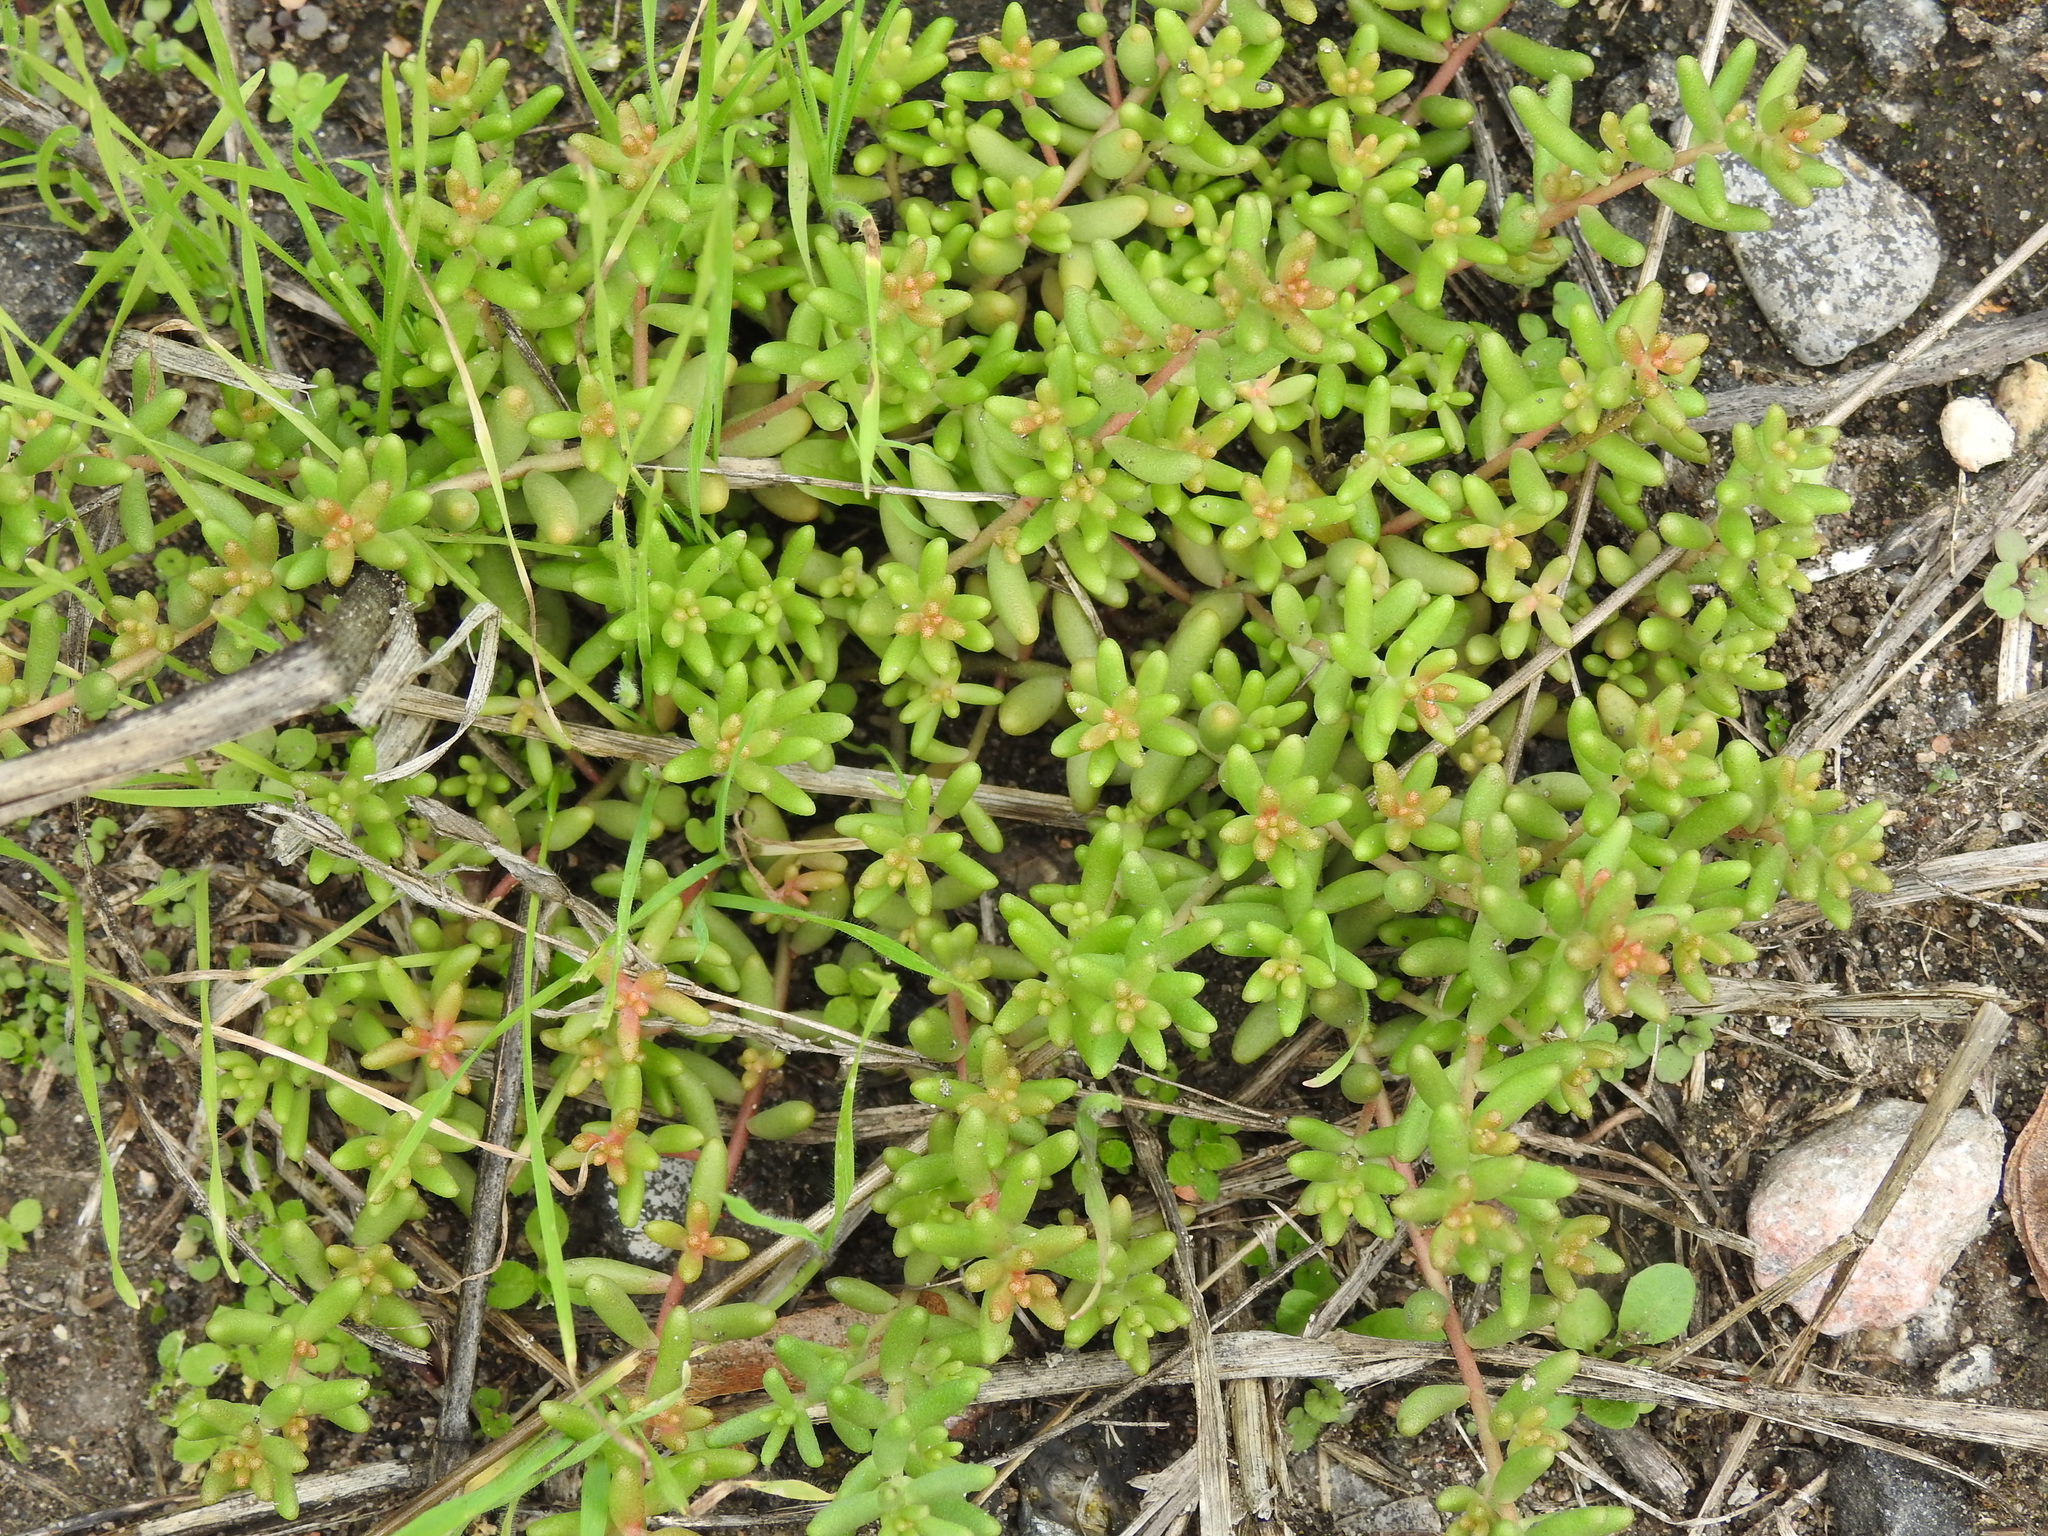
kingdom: Plantae
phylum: Tracheophyta
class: Magnoliopsida
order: Saxifragales
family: Crassulaceae
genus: Sedum
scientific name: Sedum album
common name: White stonecrop
